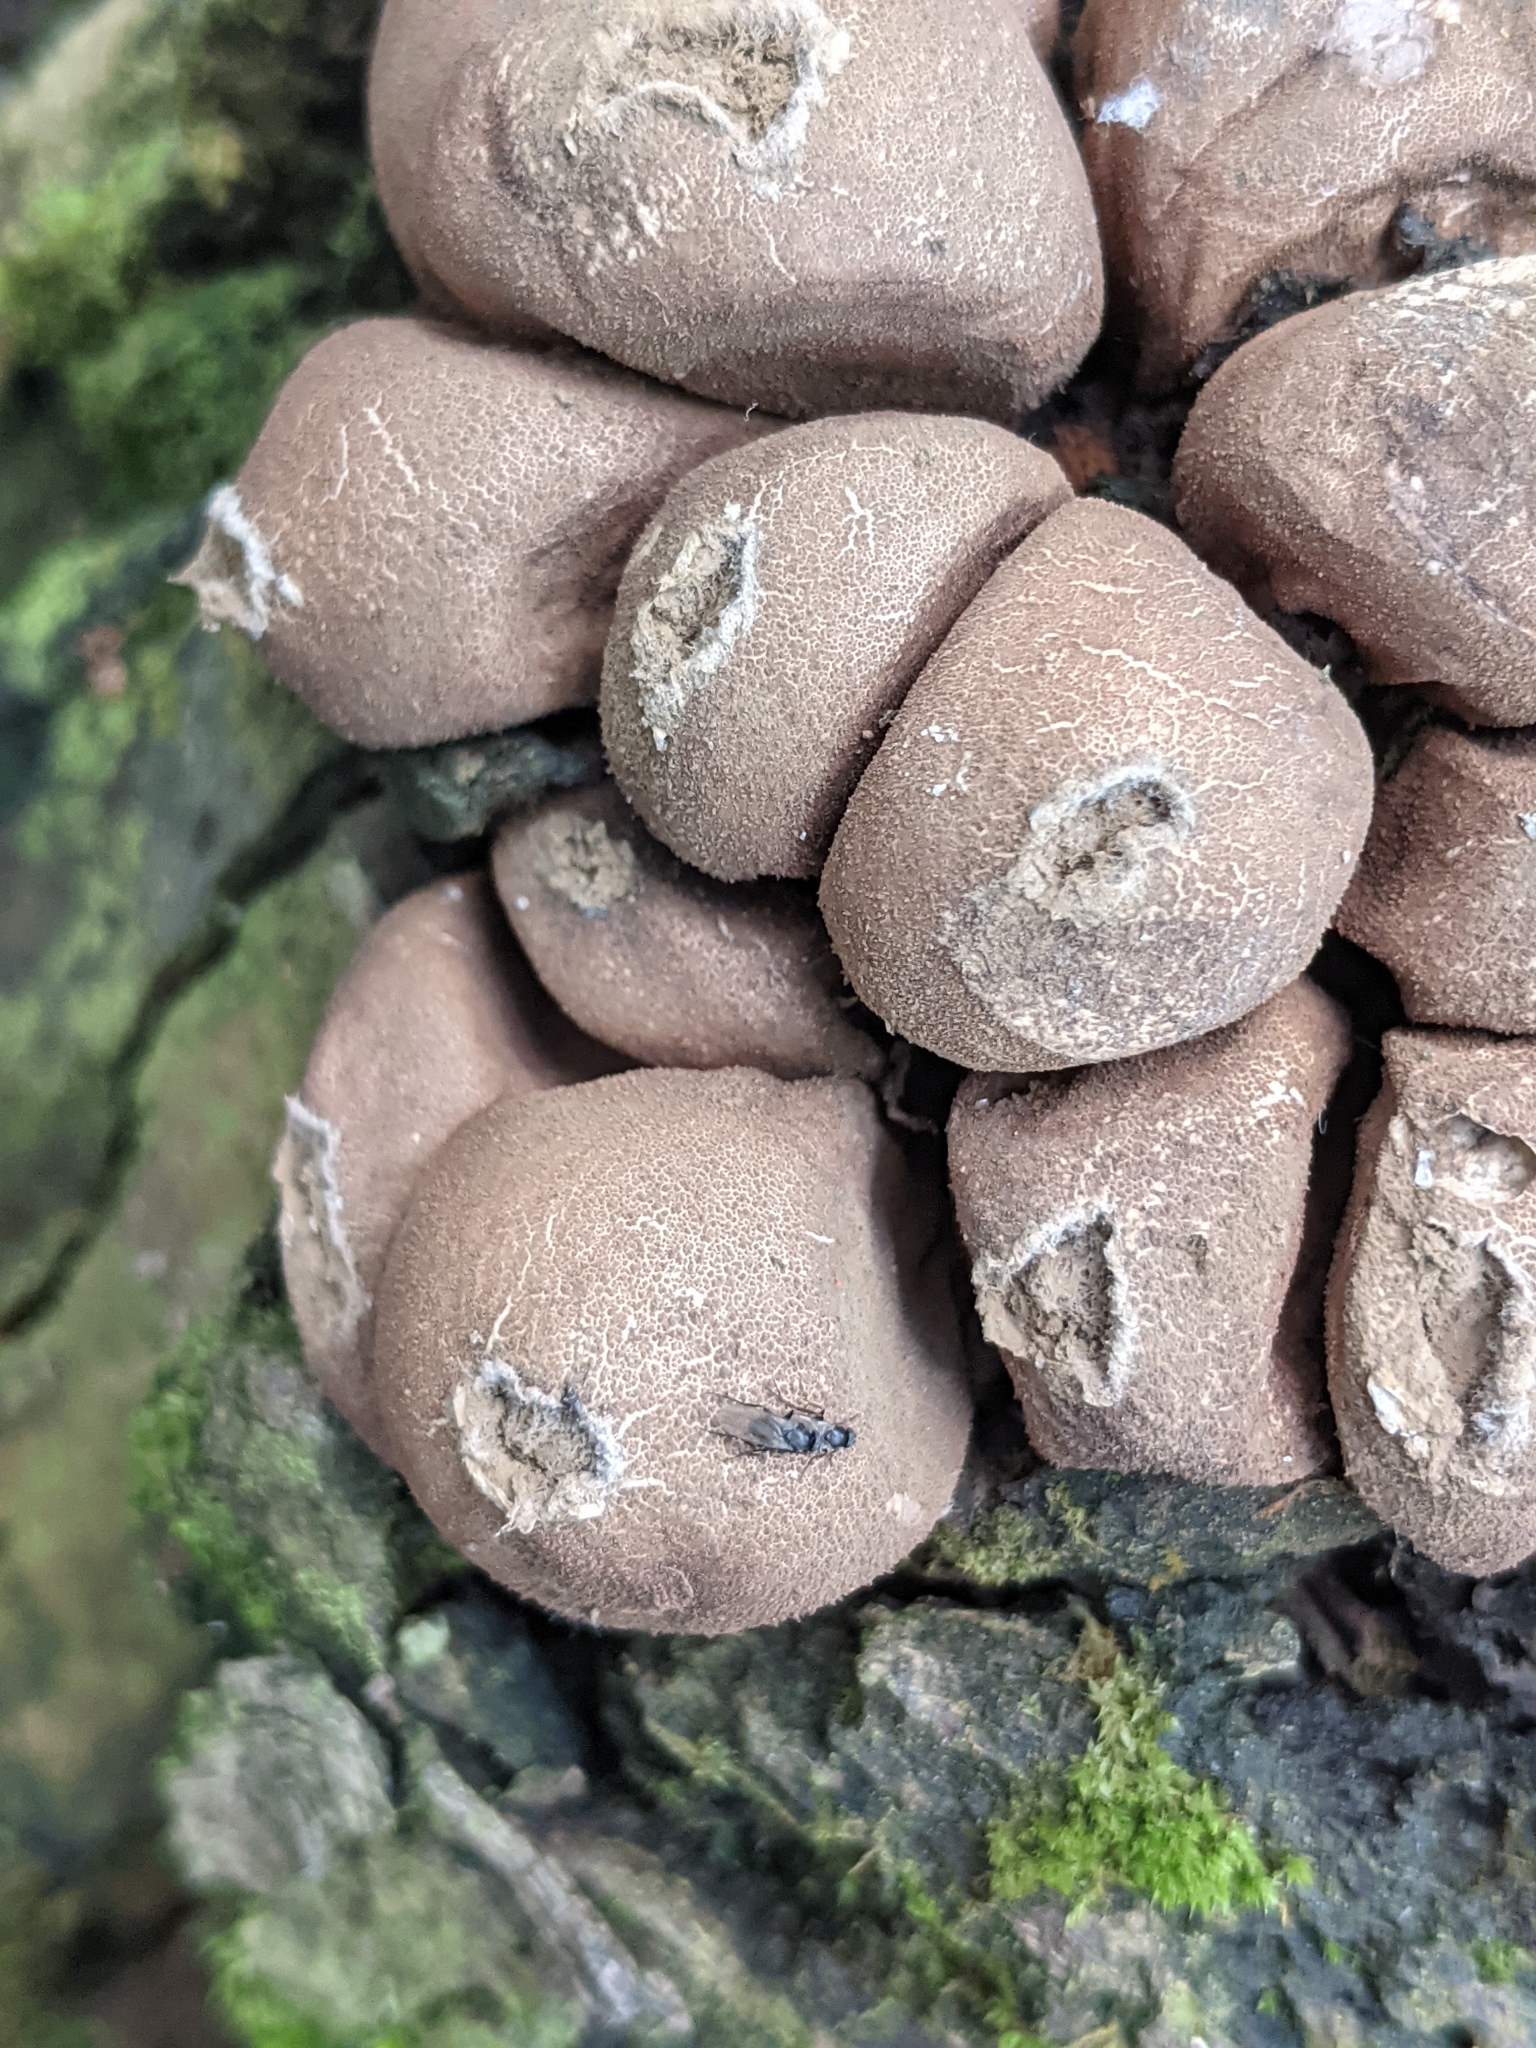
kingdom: Fungi
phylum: Basidiomycota
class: Agaricomycetes
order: Agaricales
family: Lycoperdaceae
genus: Apioperdon
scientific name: Apioperdon pyriforme
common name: Pear-shaped puffball
